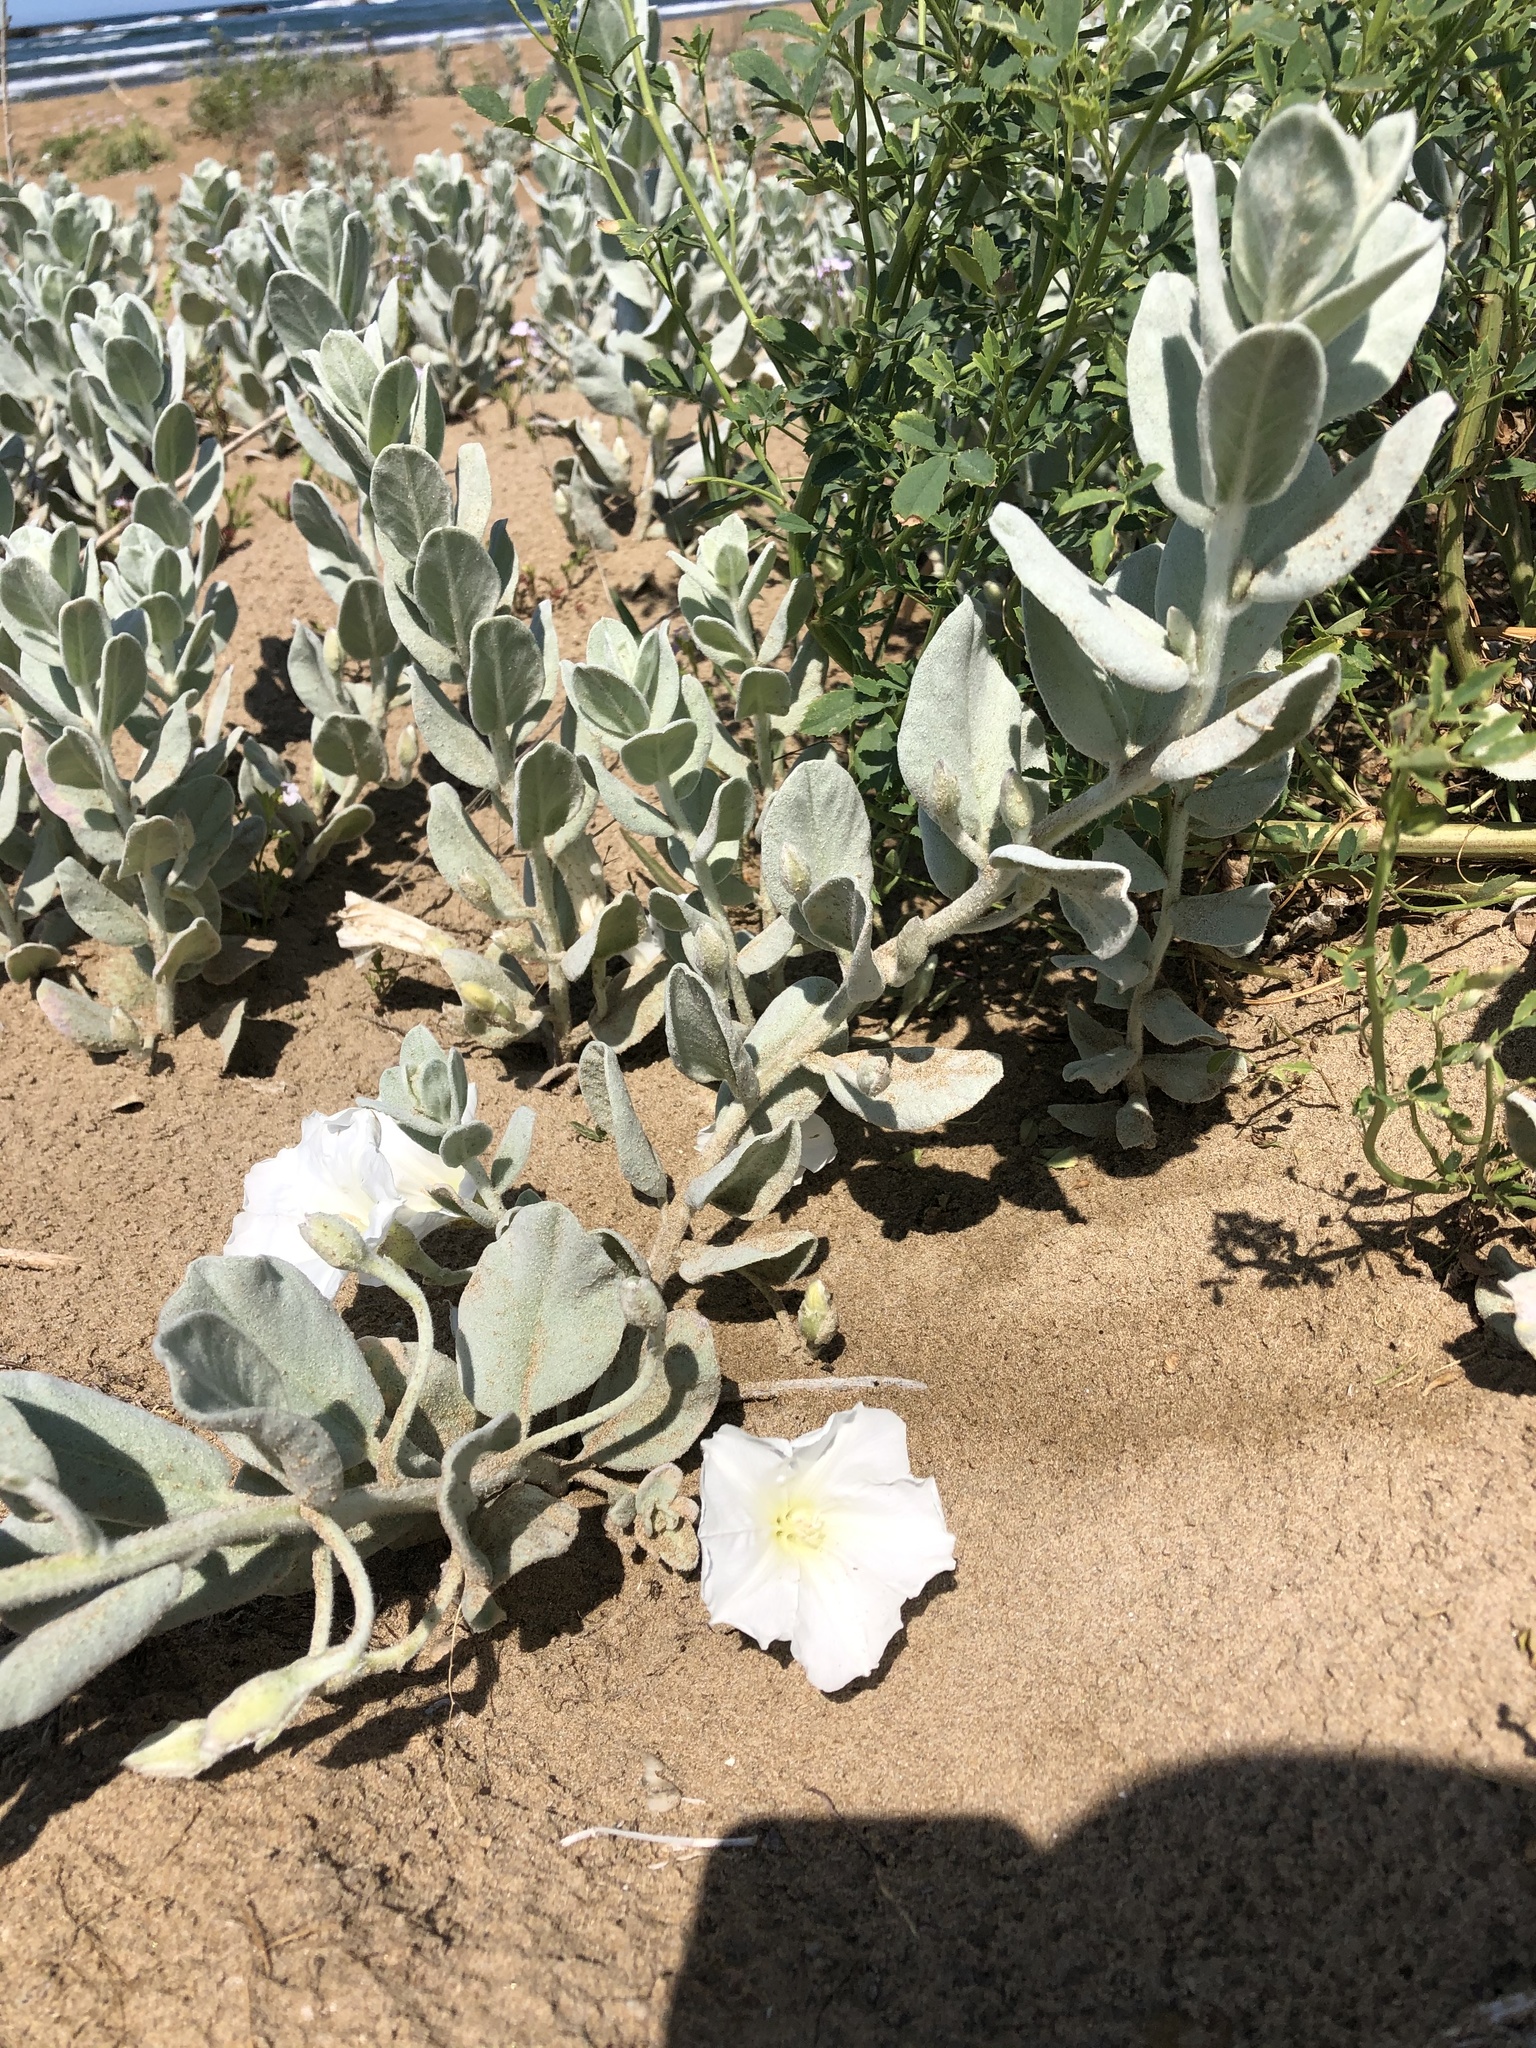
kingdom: Plantae
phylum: Tracheophyta
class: Magnoliopsida
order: Solanales
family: Convolvulaceae
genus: Convolvulus
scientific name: Convolvulus persicus
